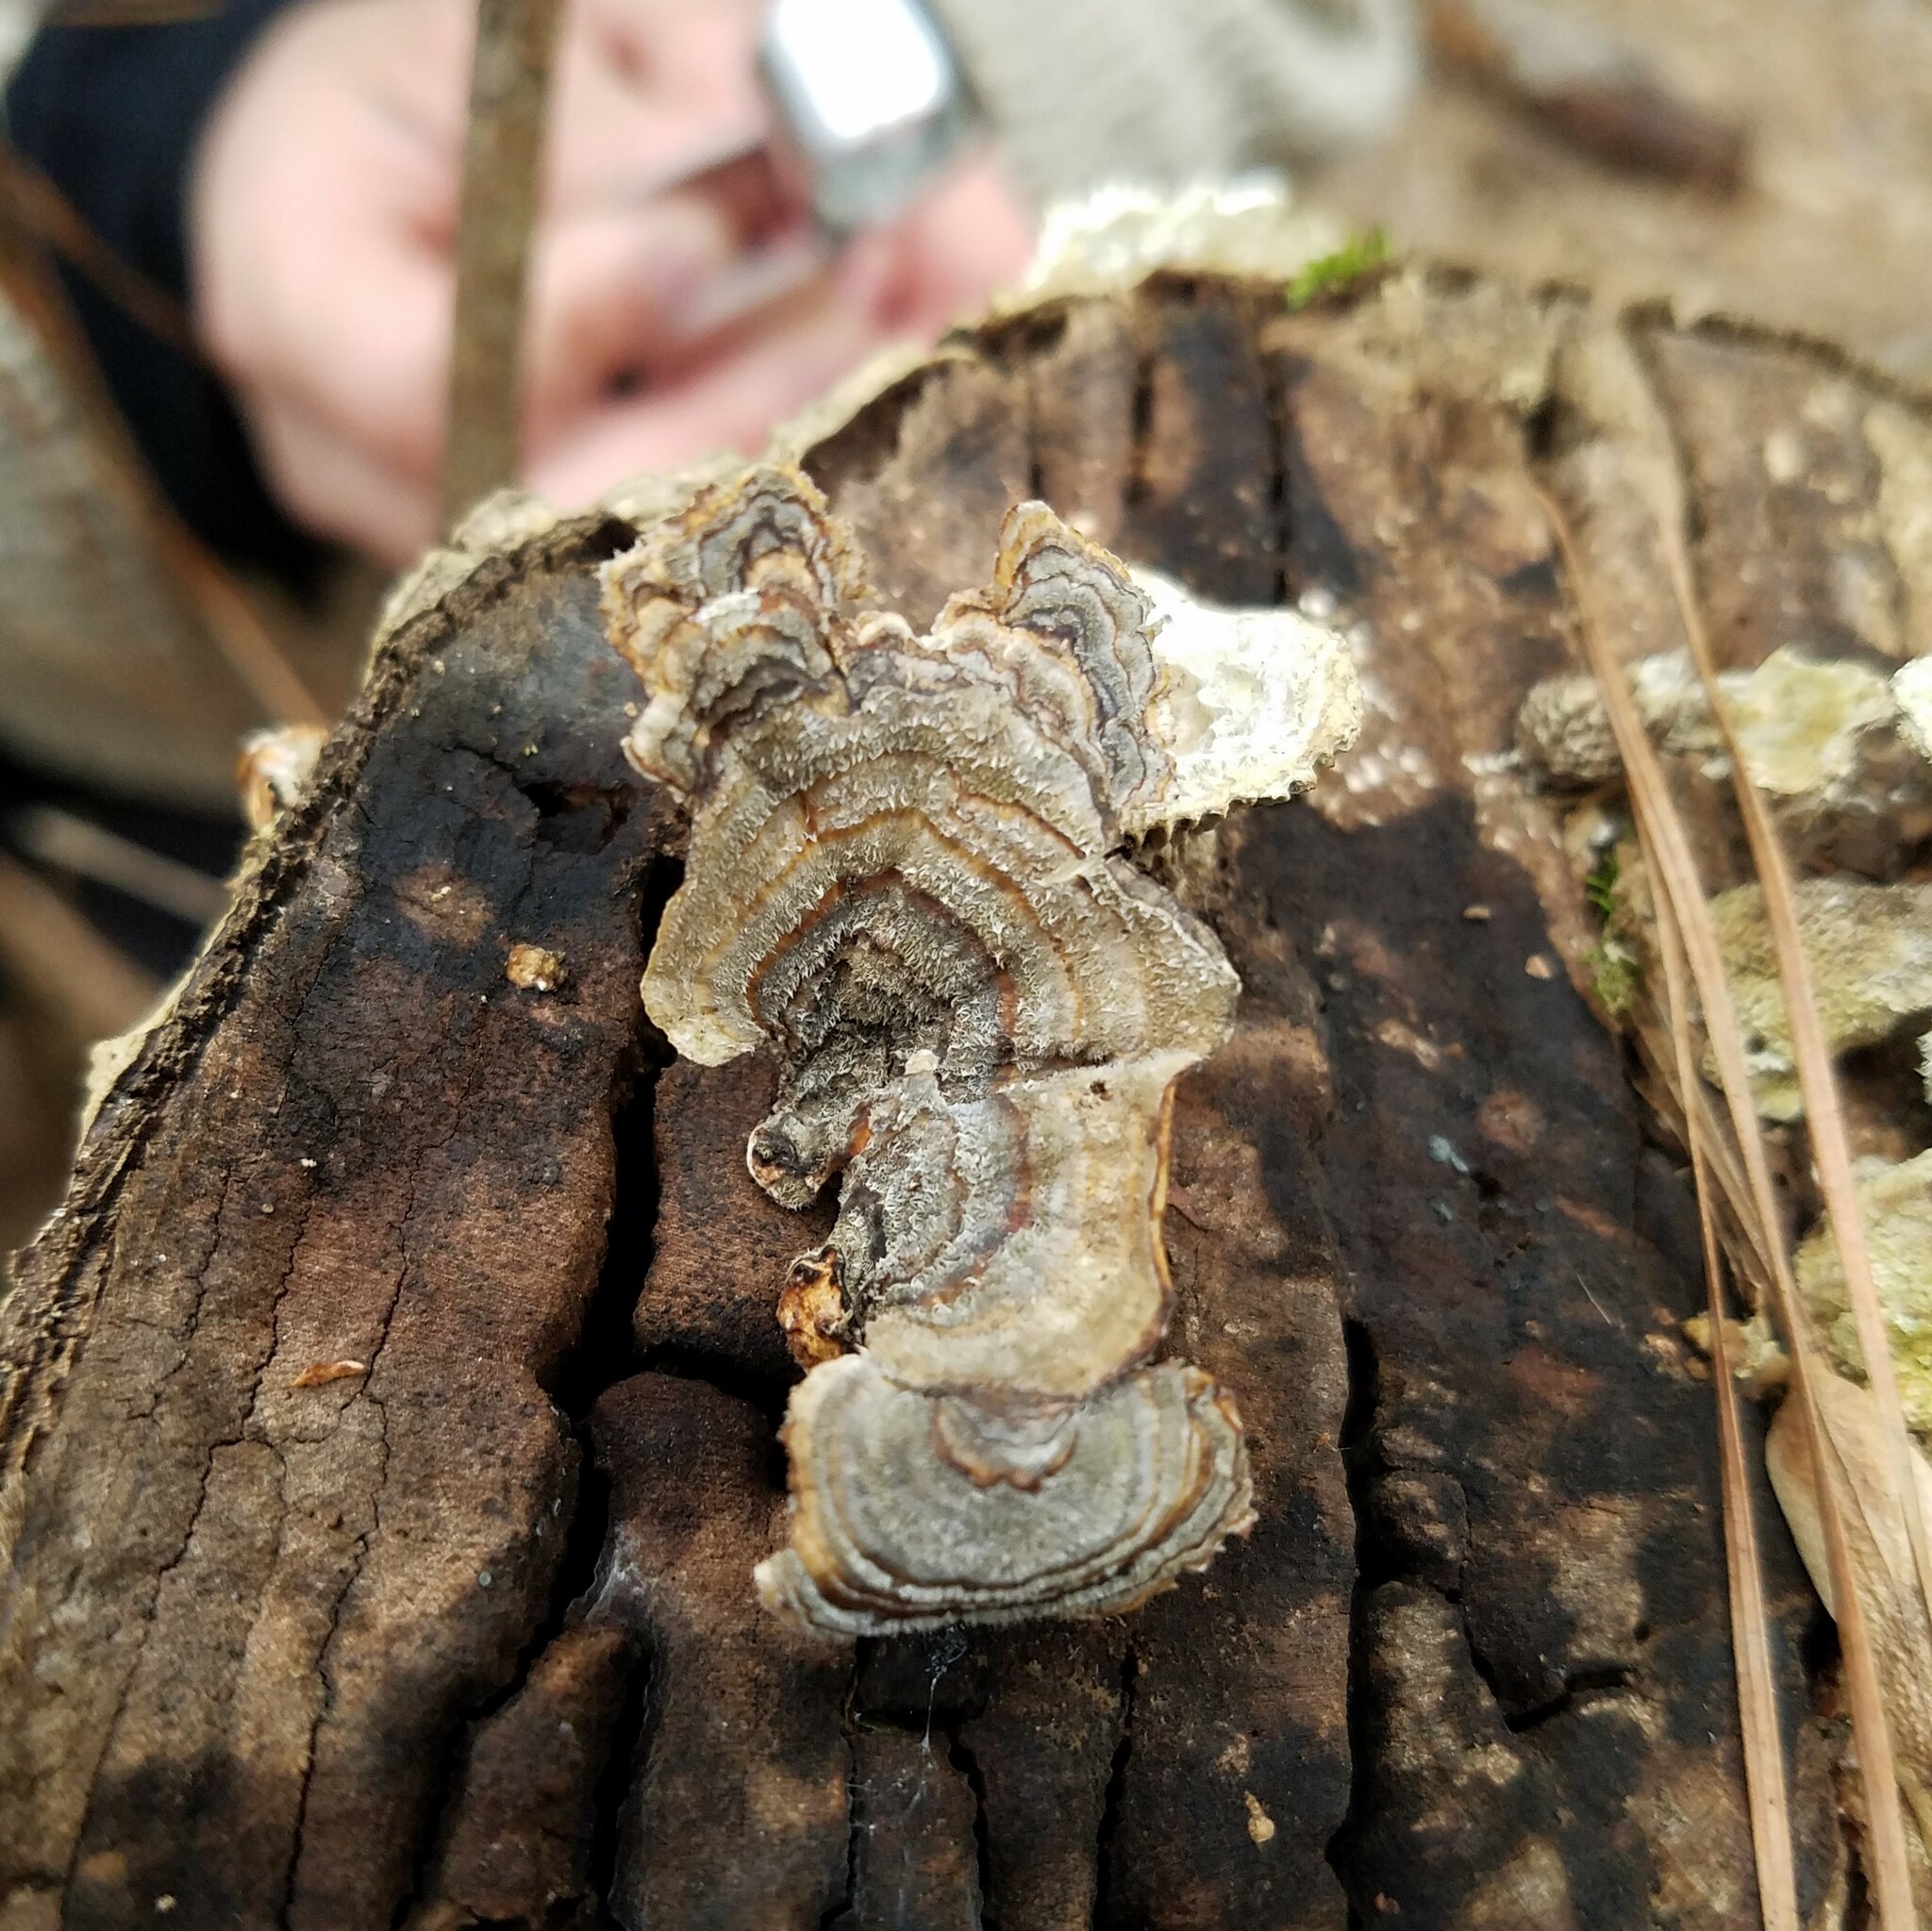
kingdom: Fungi
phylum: Basidiomycota
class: Agaricomycetes
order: Polyporales
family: Polyporaceae
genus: Trametes
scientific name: Trametes versicolor
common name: Turkeytail
